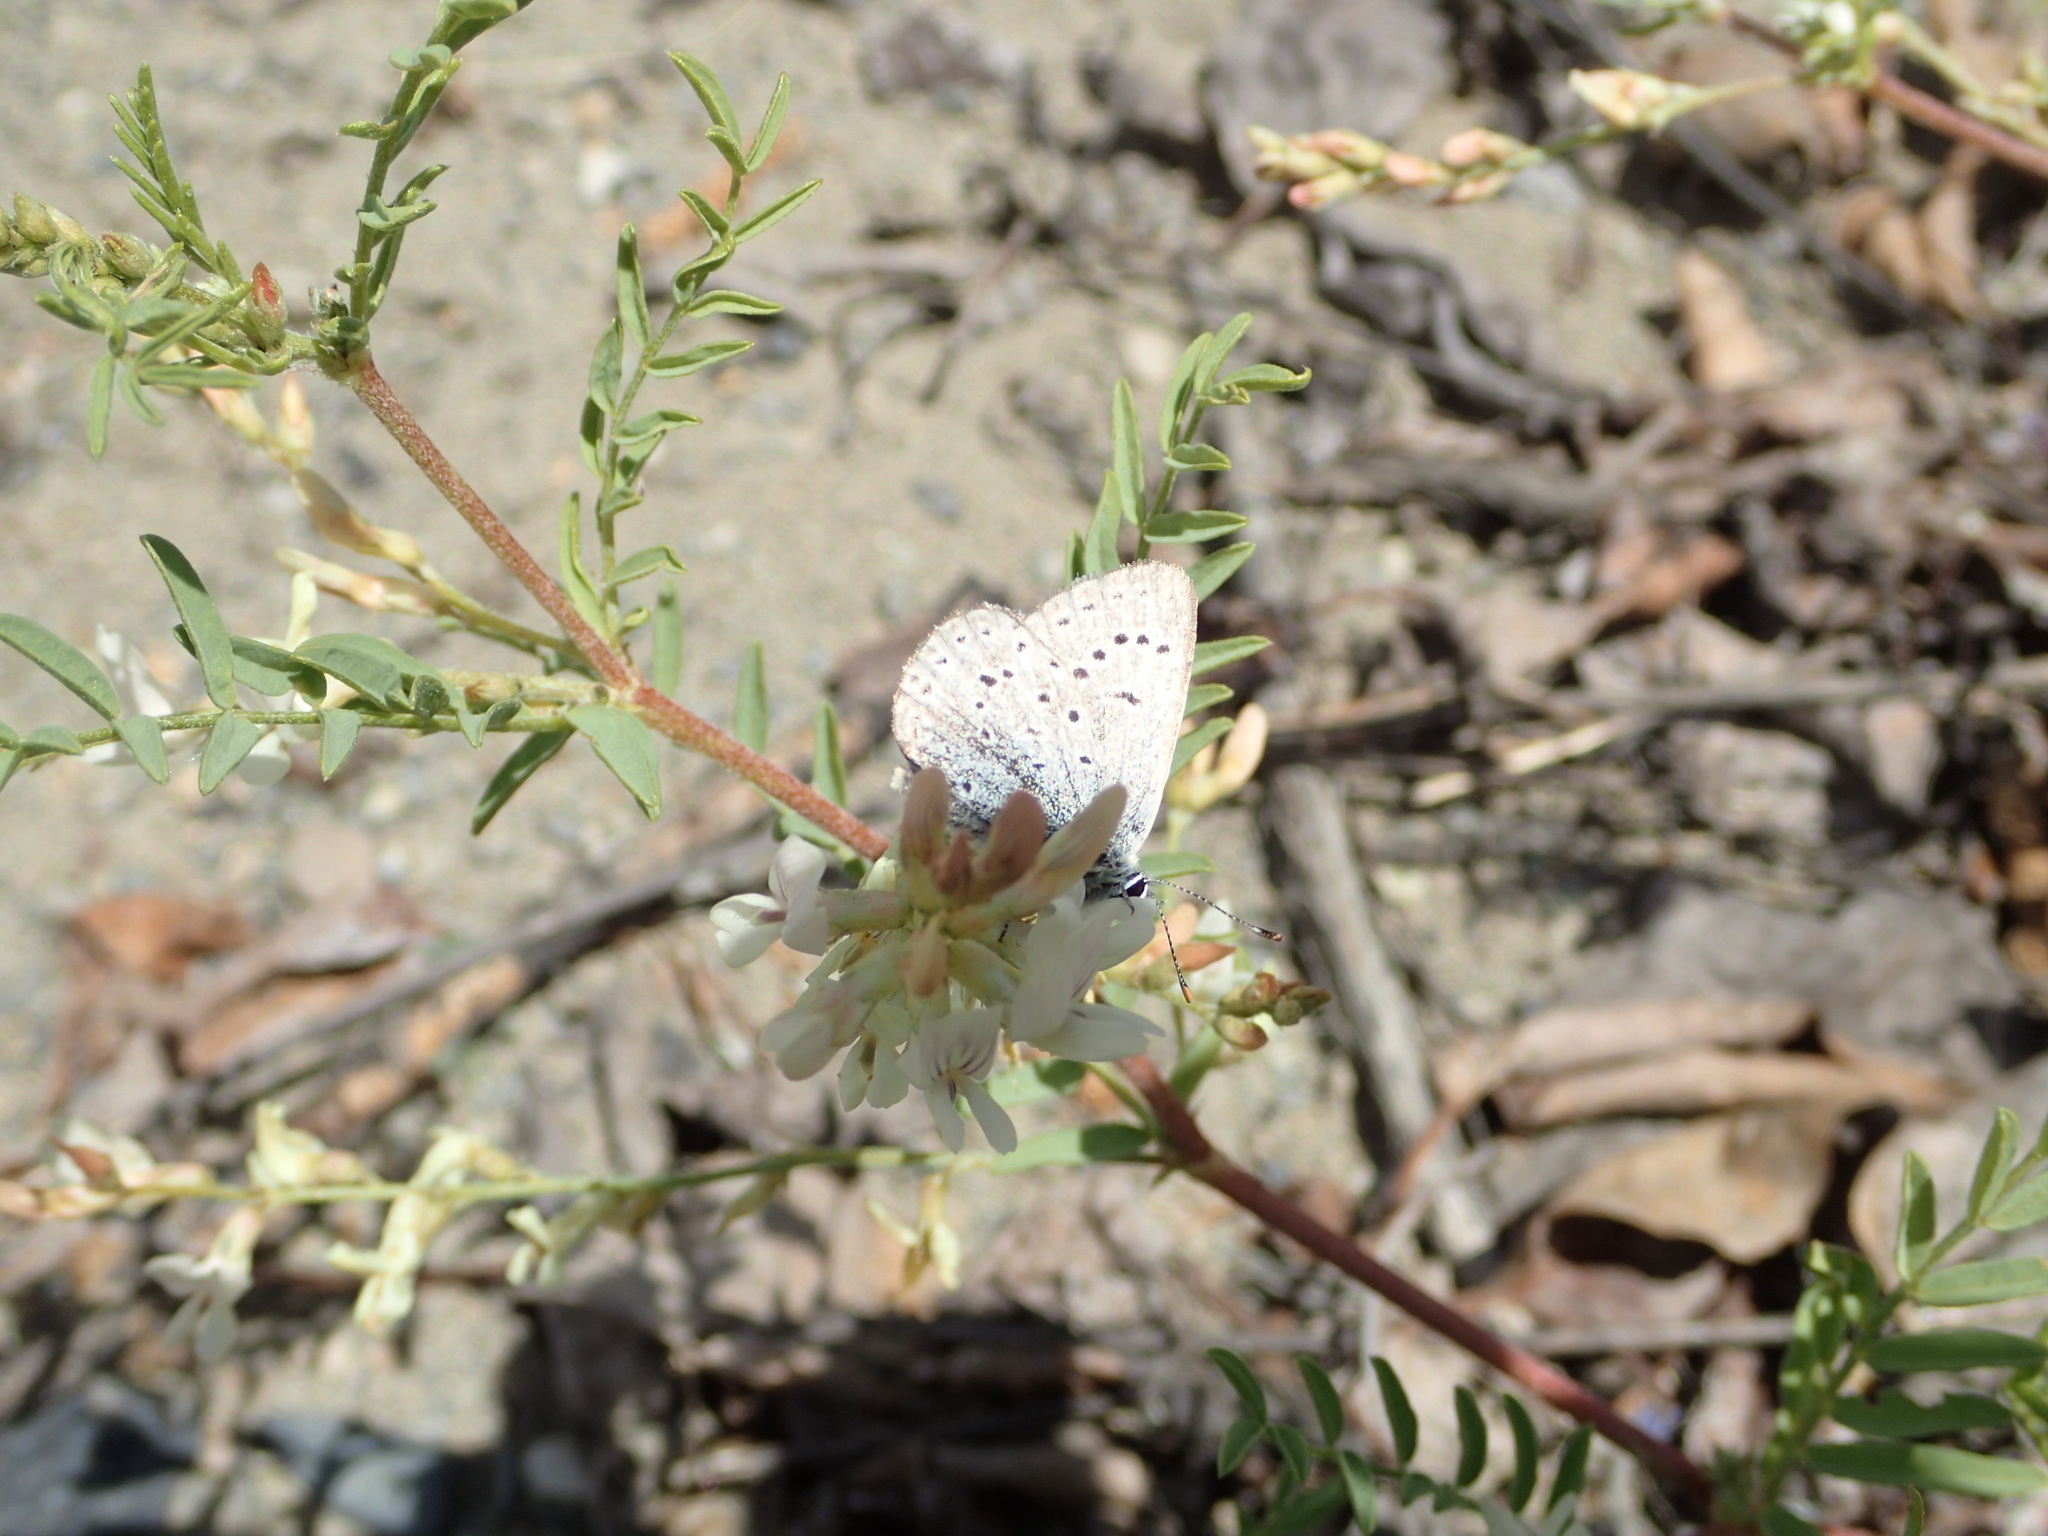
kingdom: Animalia
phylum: Arthropoda
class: Insecta
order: Lepidoptera
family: Lycaenidae
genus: Icaricia
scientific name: Icaricia saepiolus
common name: Greenish blue
